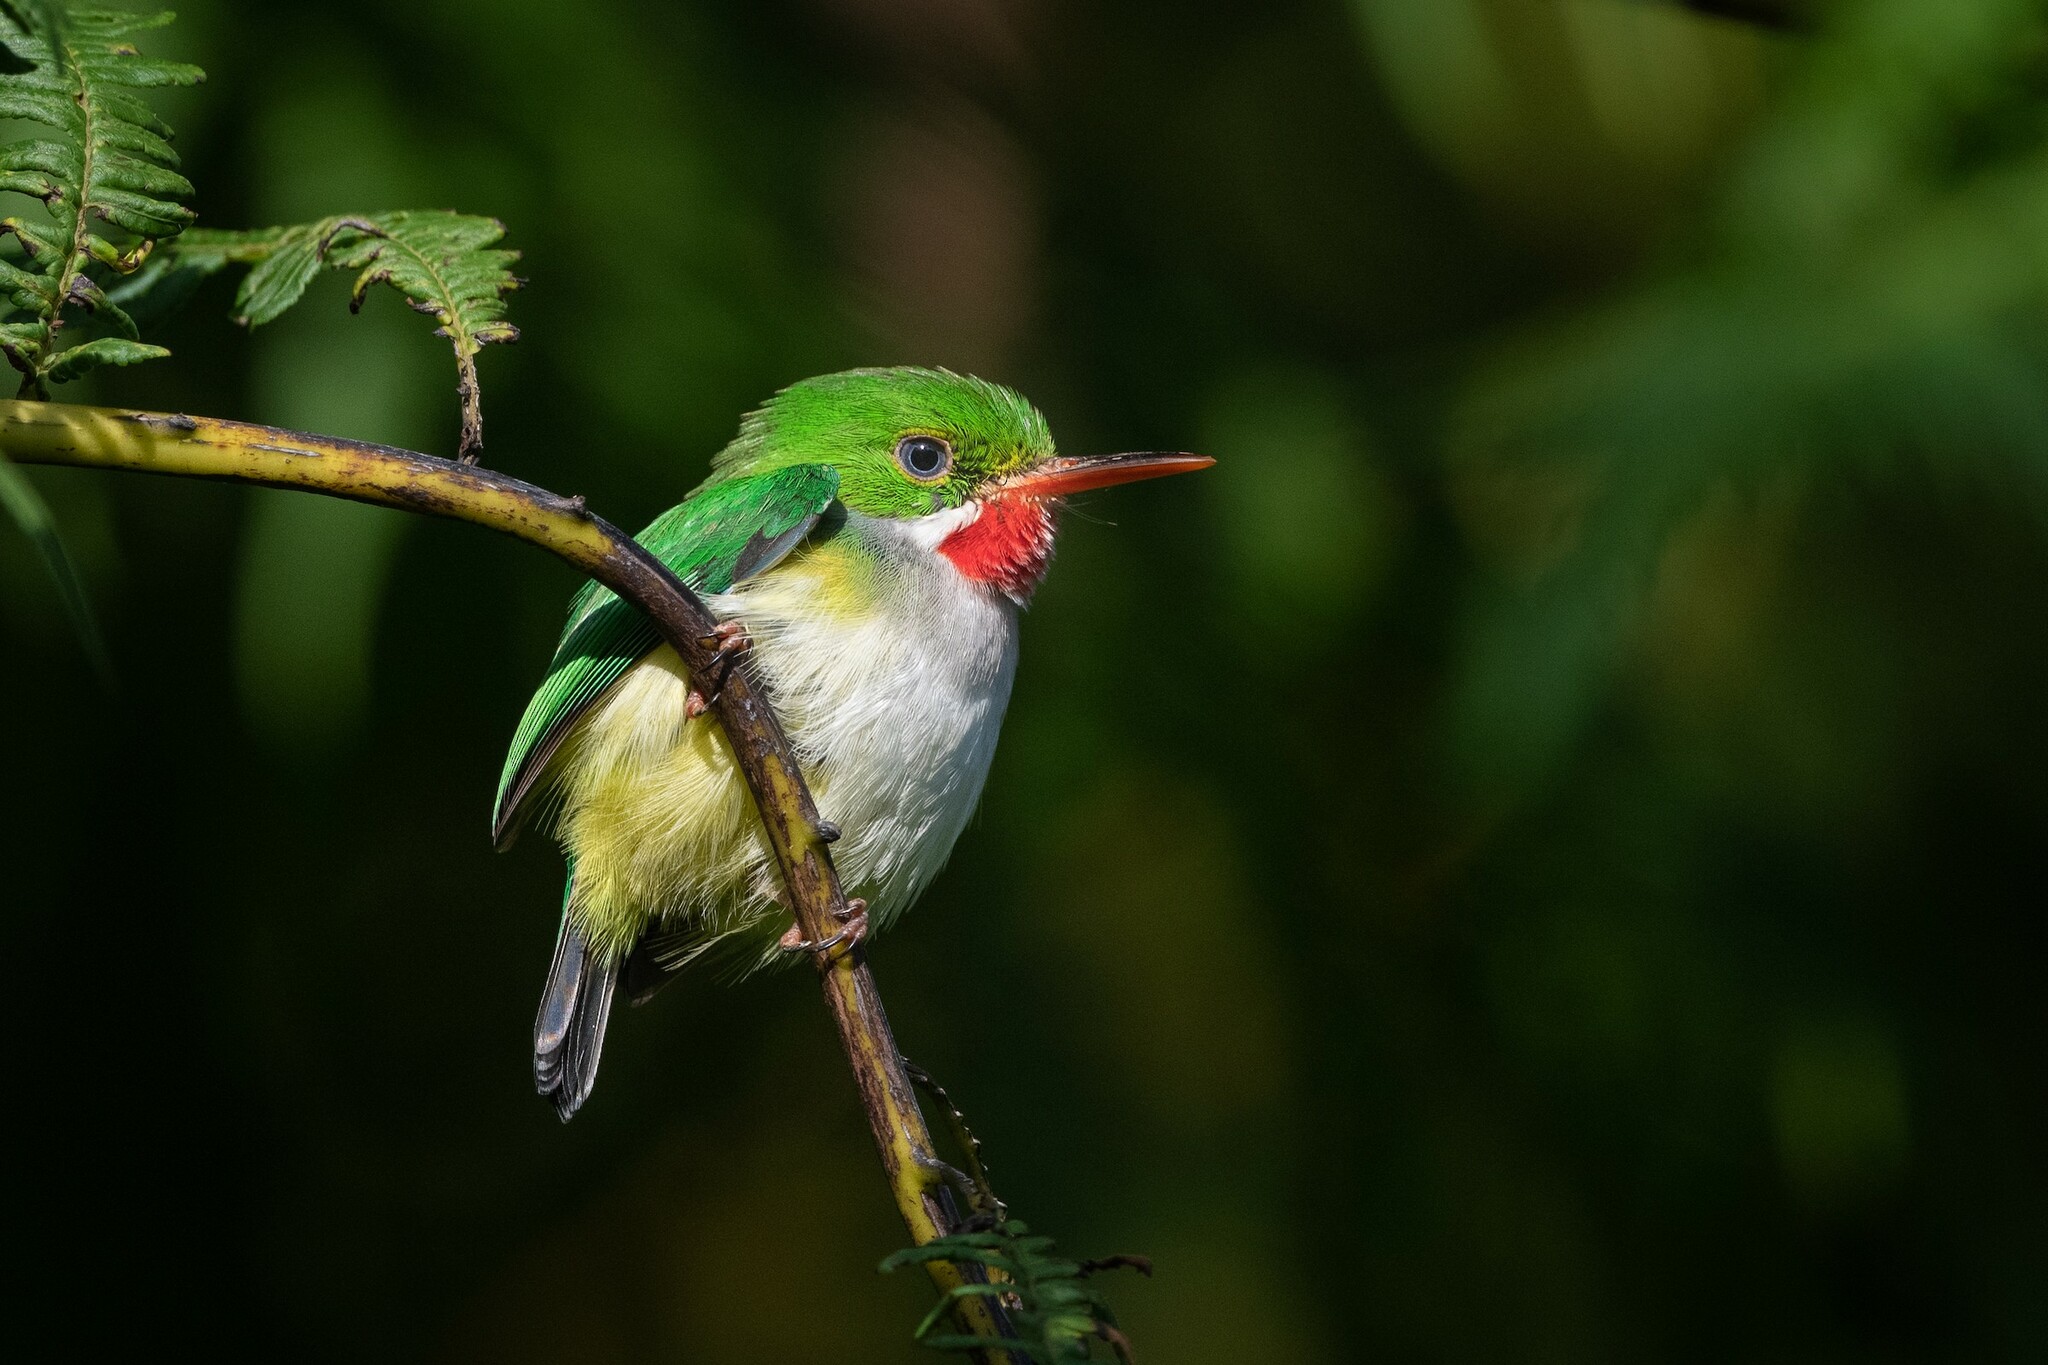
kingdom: Animalia
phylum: Chordata
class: Aves
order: Coraciiformes
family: Todidae
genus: Todus
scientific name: Todus mexicanus
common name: Puerto rican tody
